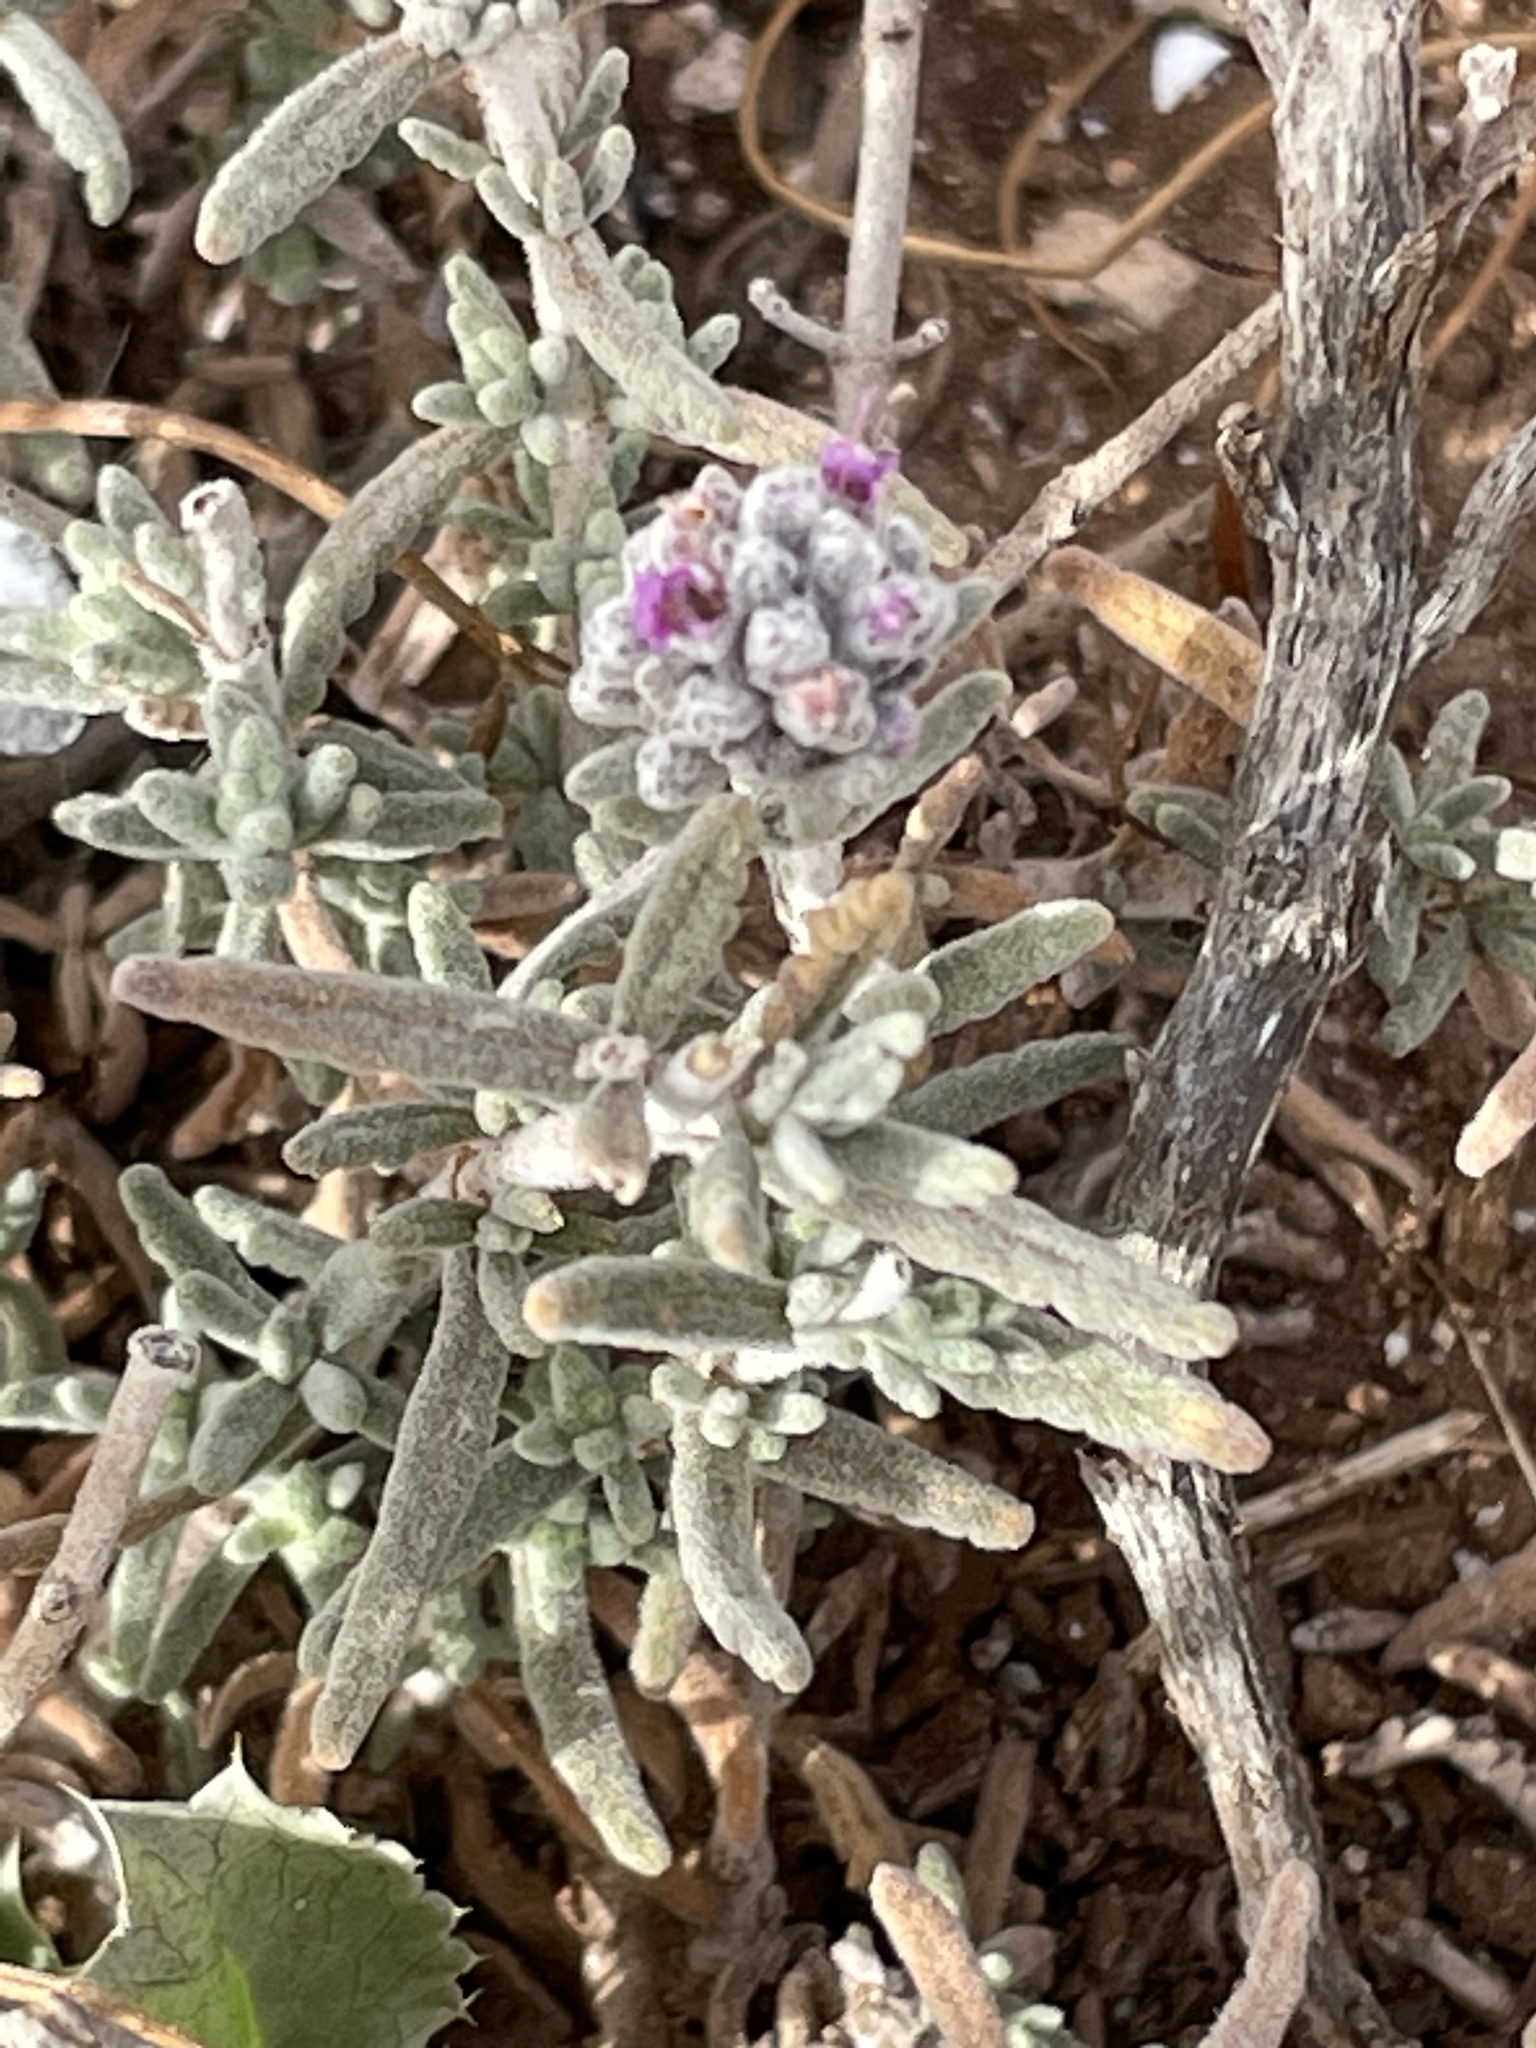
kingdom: Plantae
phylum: Tracheophyta
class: Magnoliopsida
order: Lamiales
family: Lamiaceae
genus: Teucrium
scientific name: Teucrium capitatum
